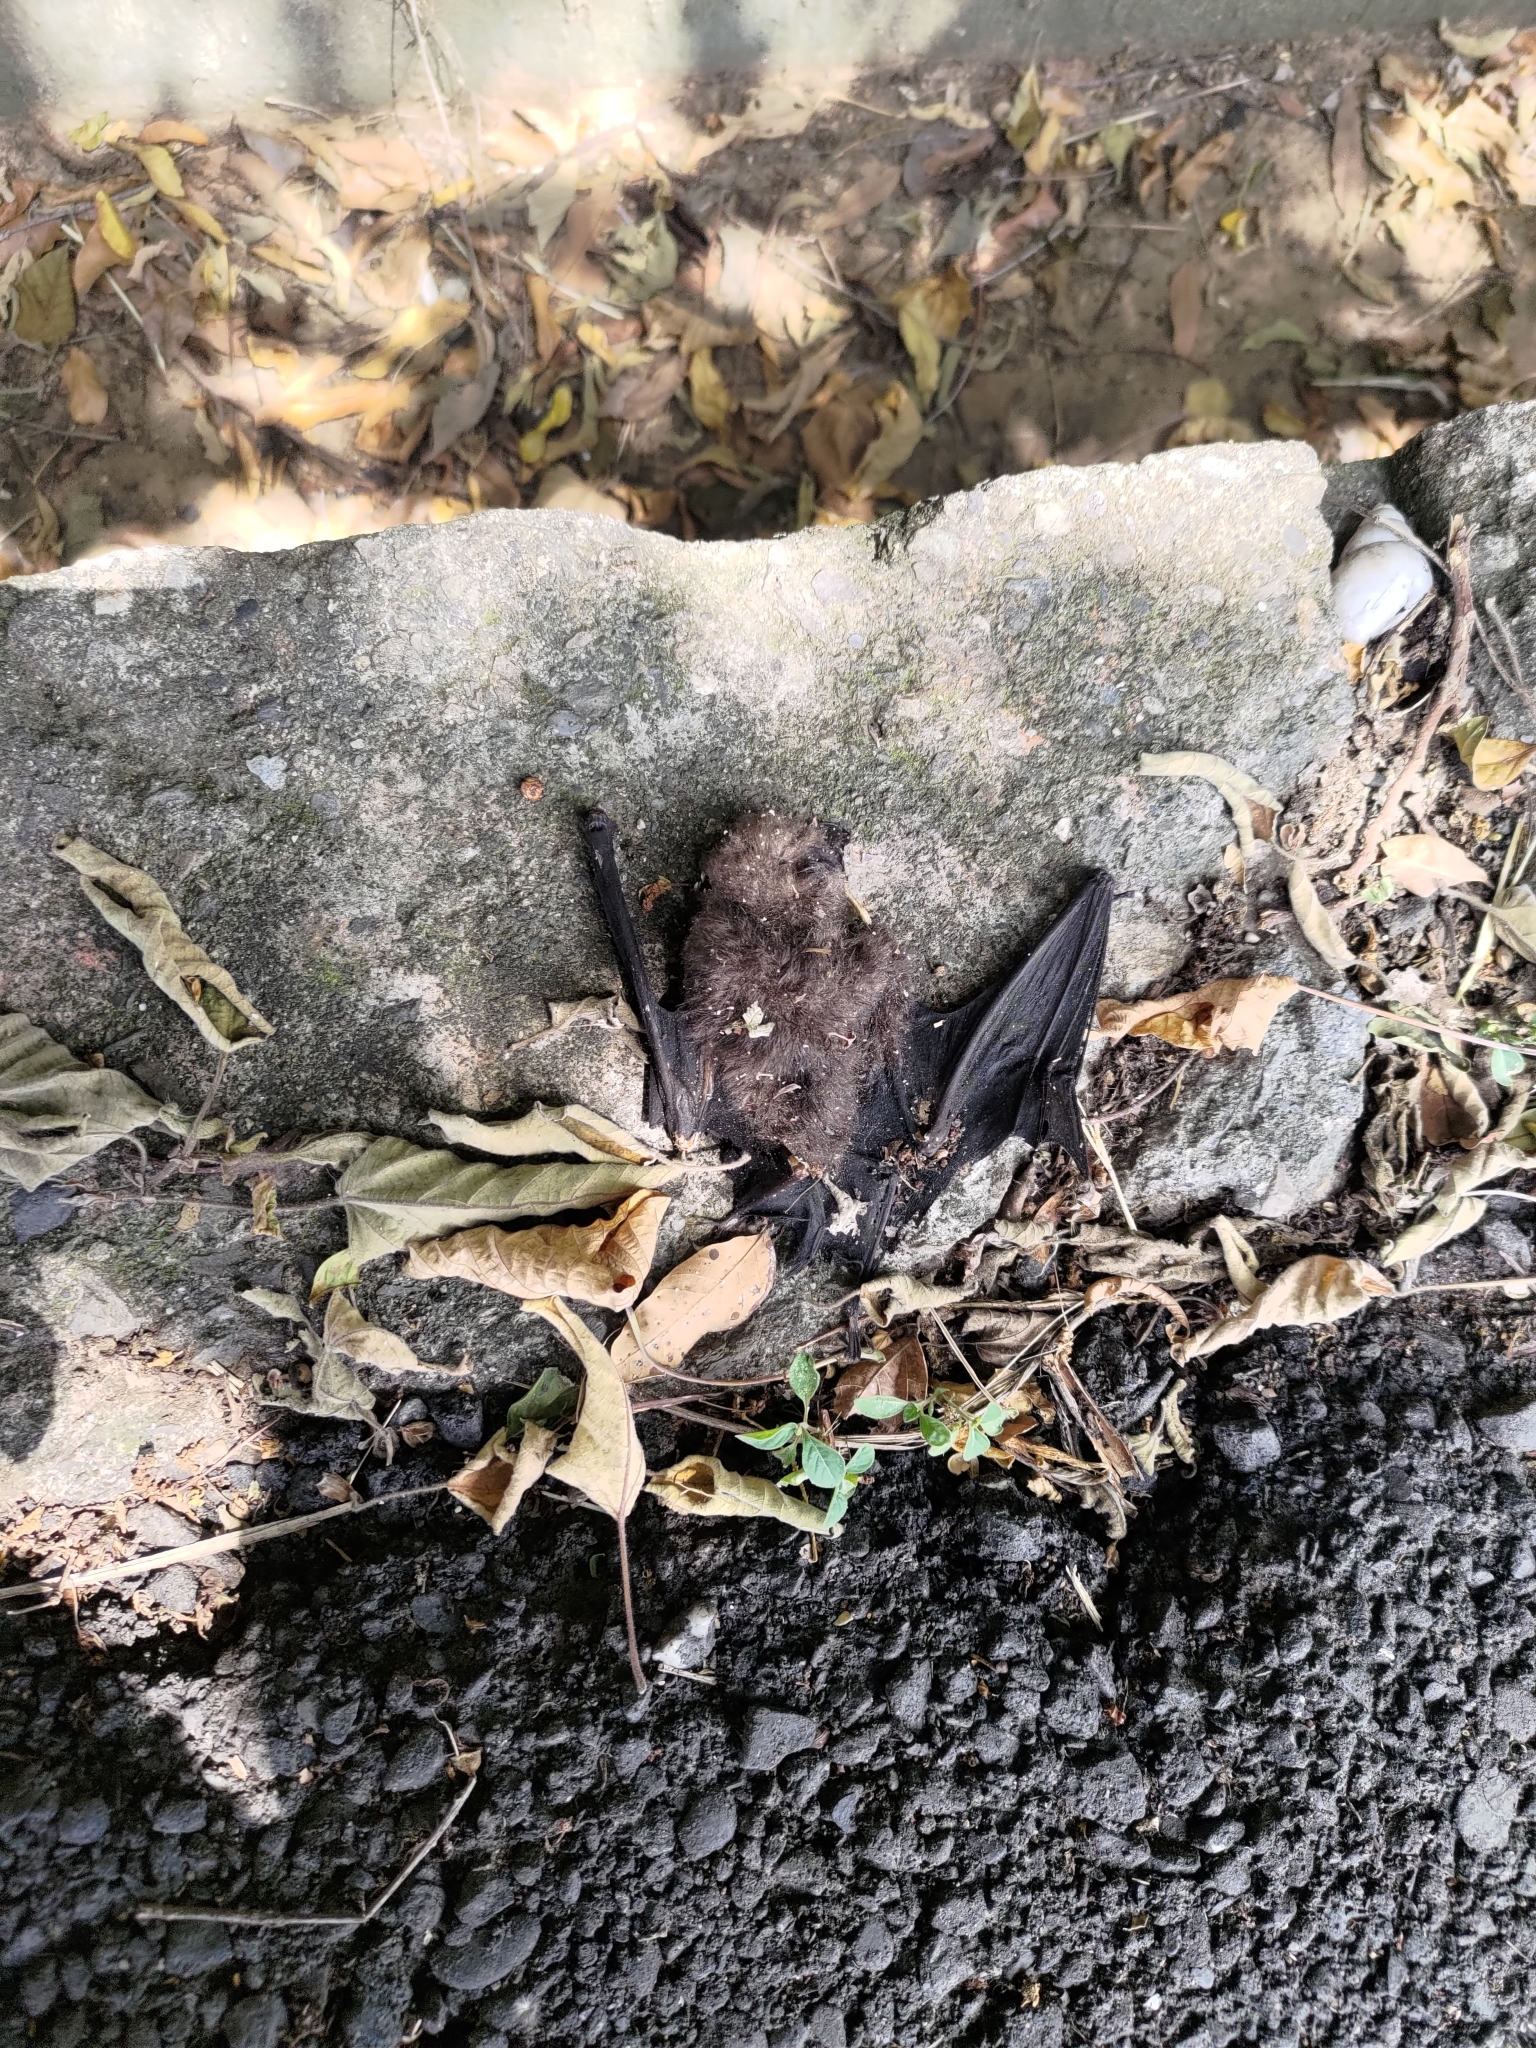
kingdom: Animalia
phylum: Chordata
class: Mammalia
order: Chiroptera
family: Hipposideridae
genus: Hipposideros
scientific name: Hipposideros armiger
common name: Great leaf-nosed bat
